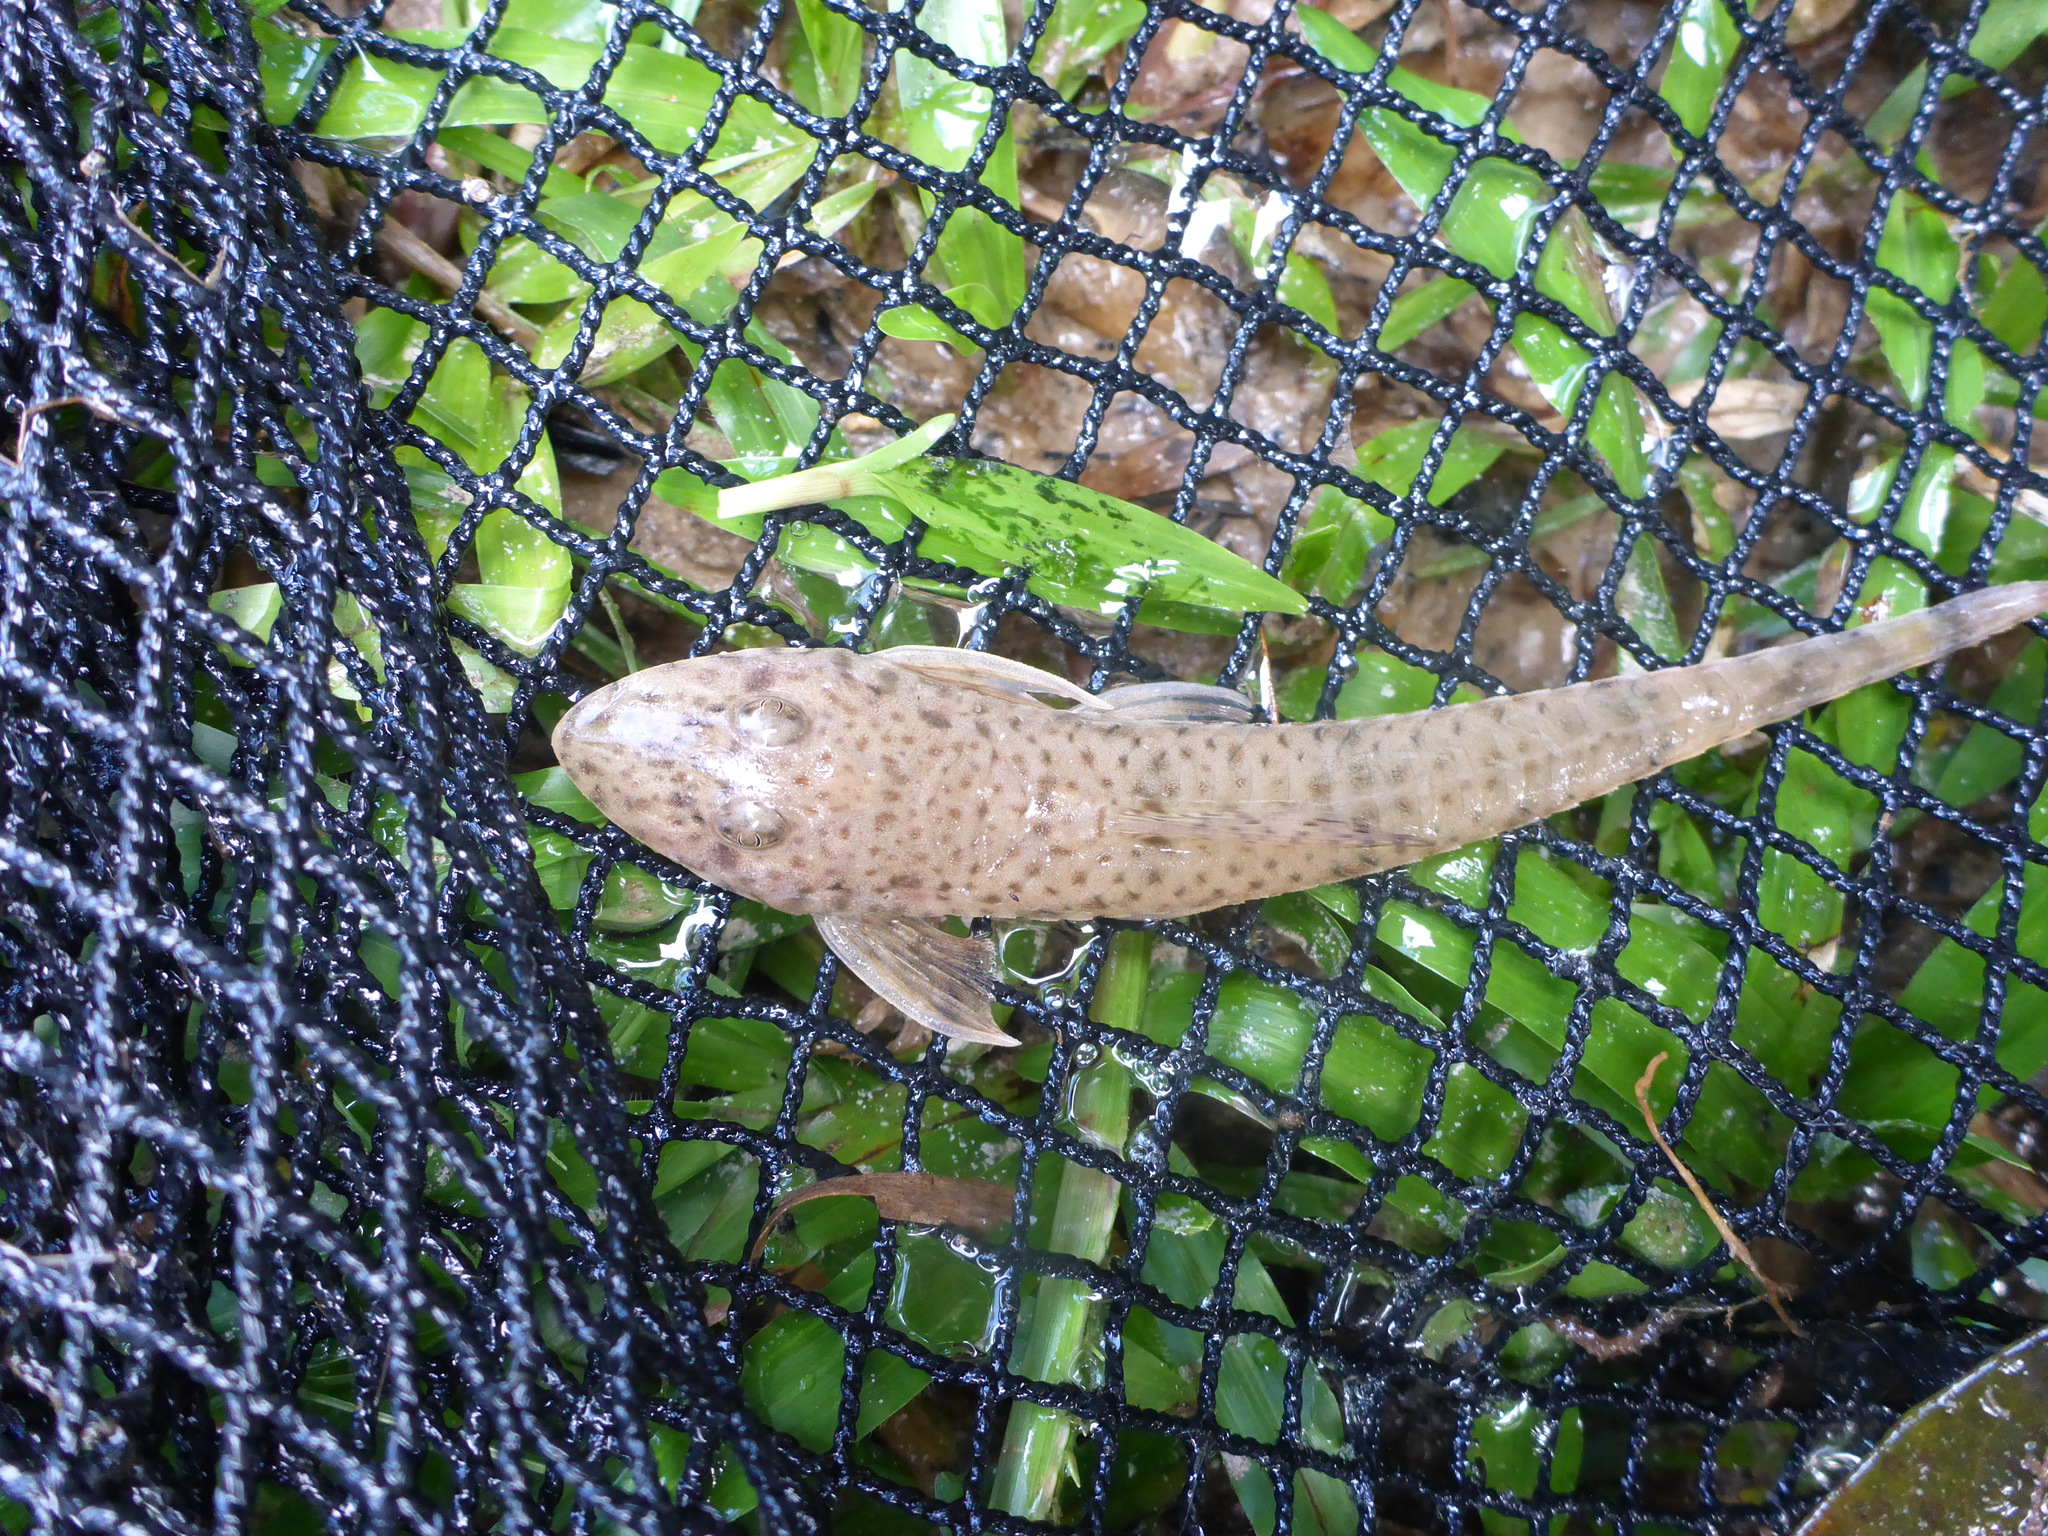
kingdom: Animalia
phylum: Chordata
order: Siluriformes
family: Loricariidae
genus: Limatulichthys
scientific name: Limatulichthys griseus
